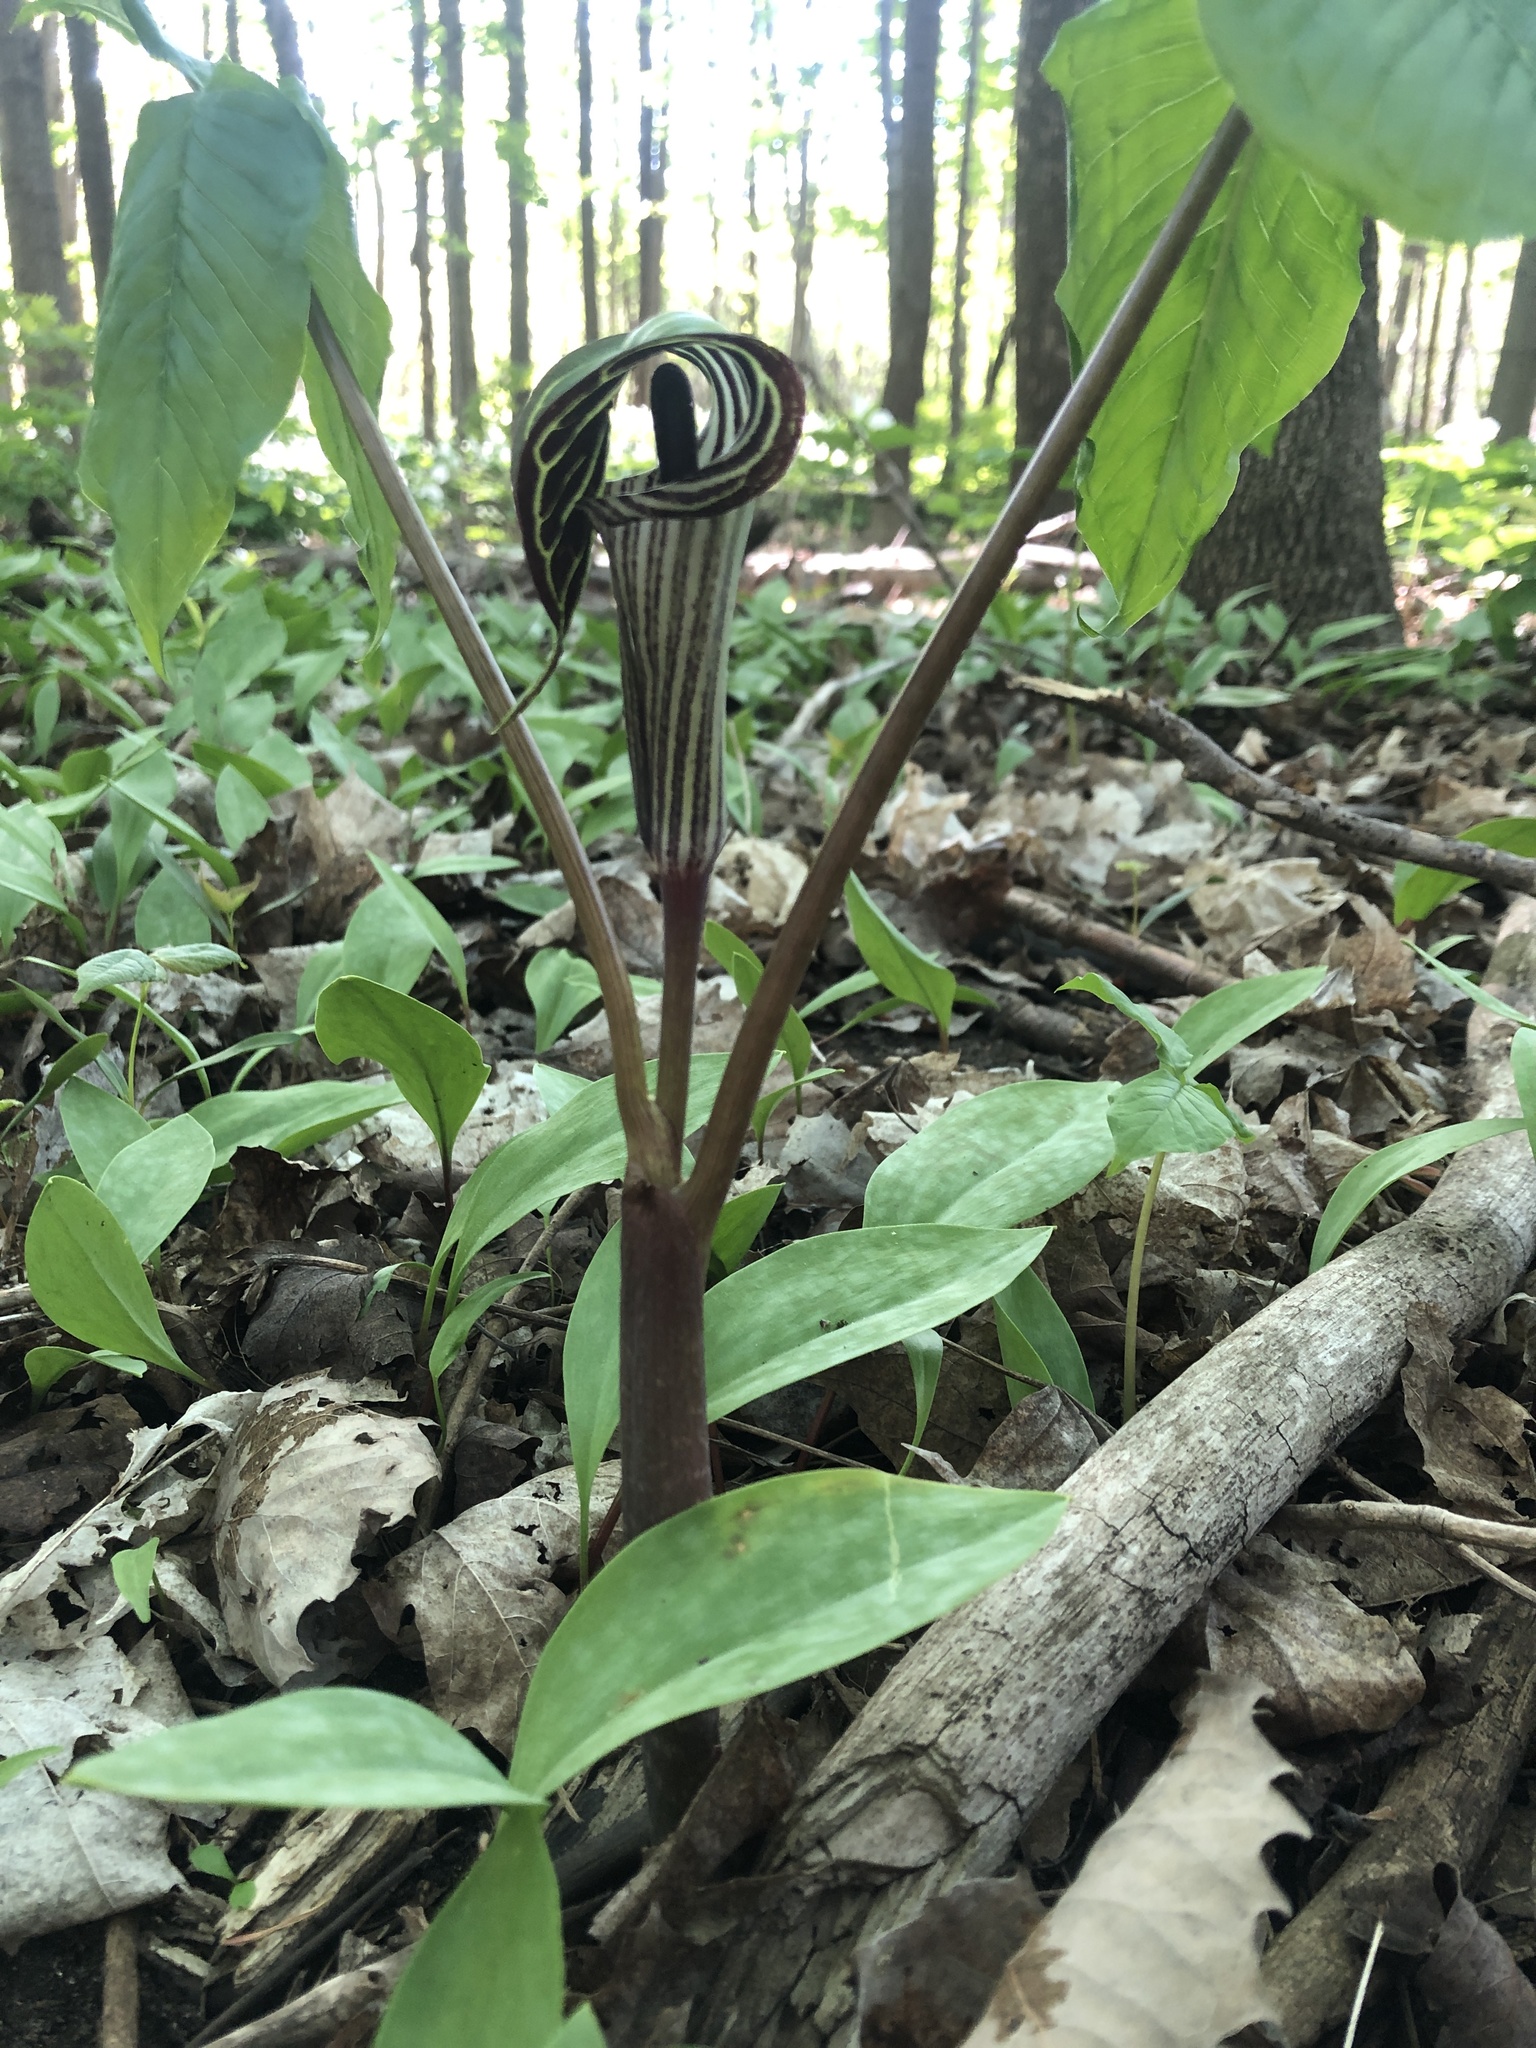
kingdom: Plantae
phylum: Tracheophyta
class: Liliopsida
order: Alismatales
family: Araceae
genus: Arisaema
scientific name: Arisaema triphyllum
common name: Jack-in-the-pulpit
